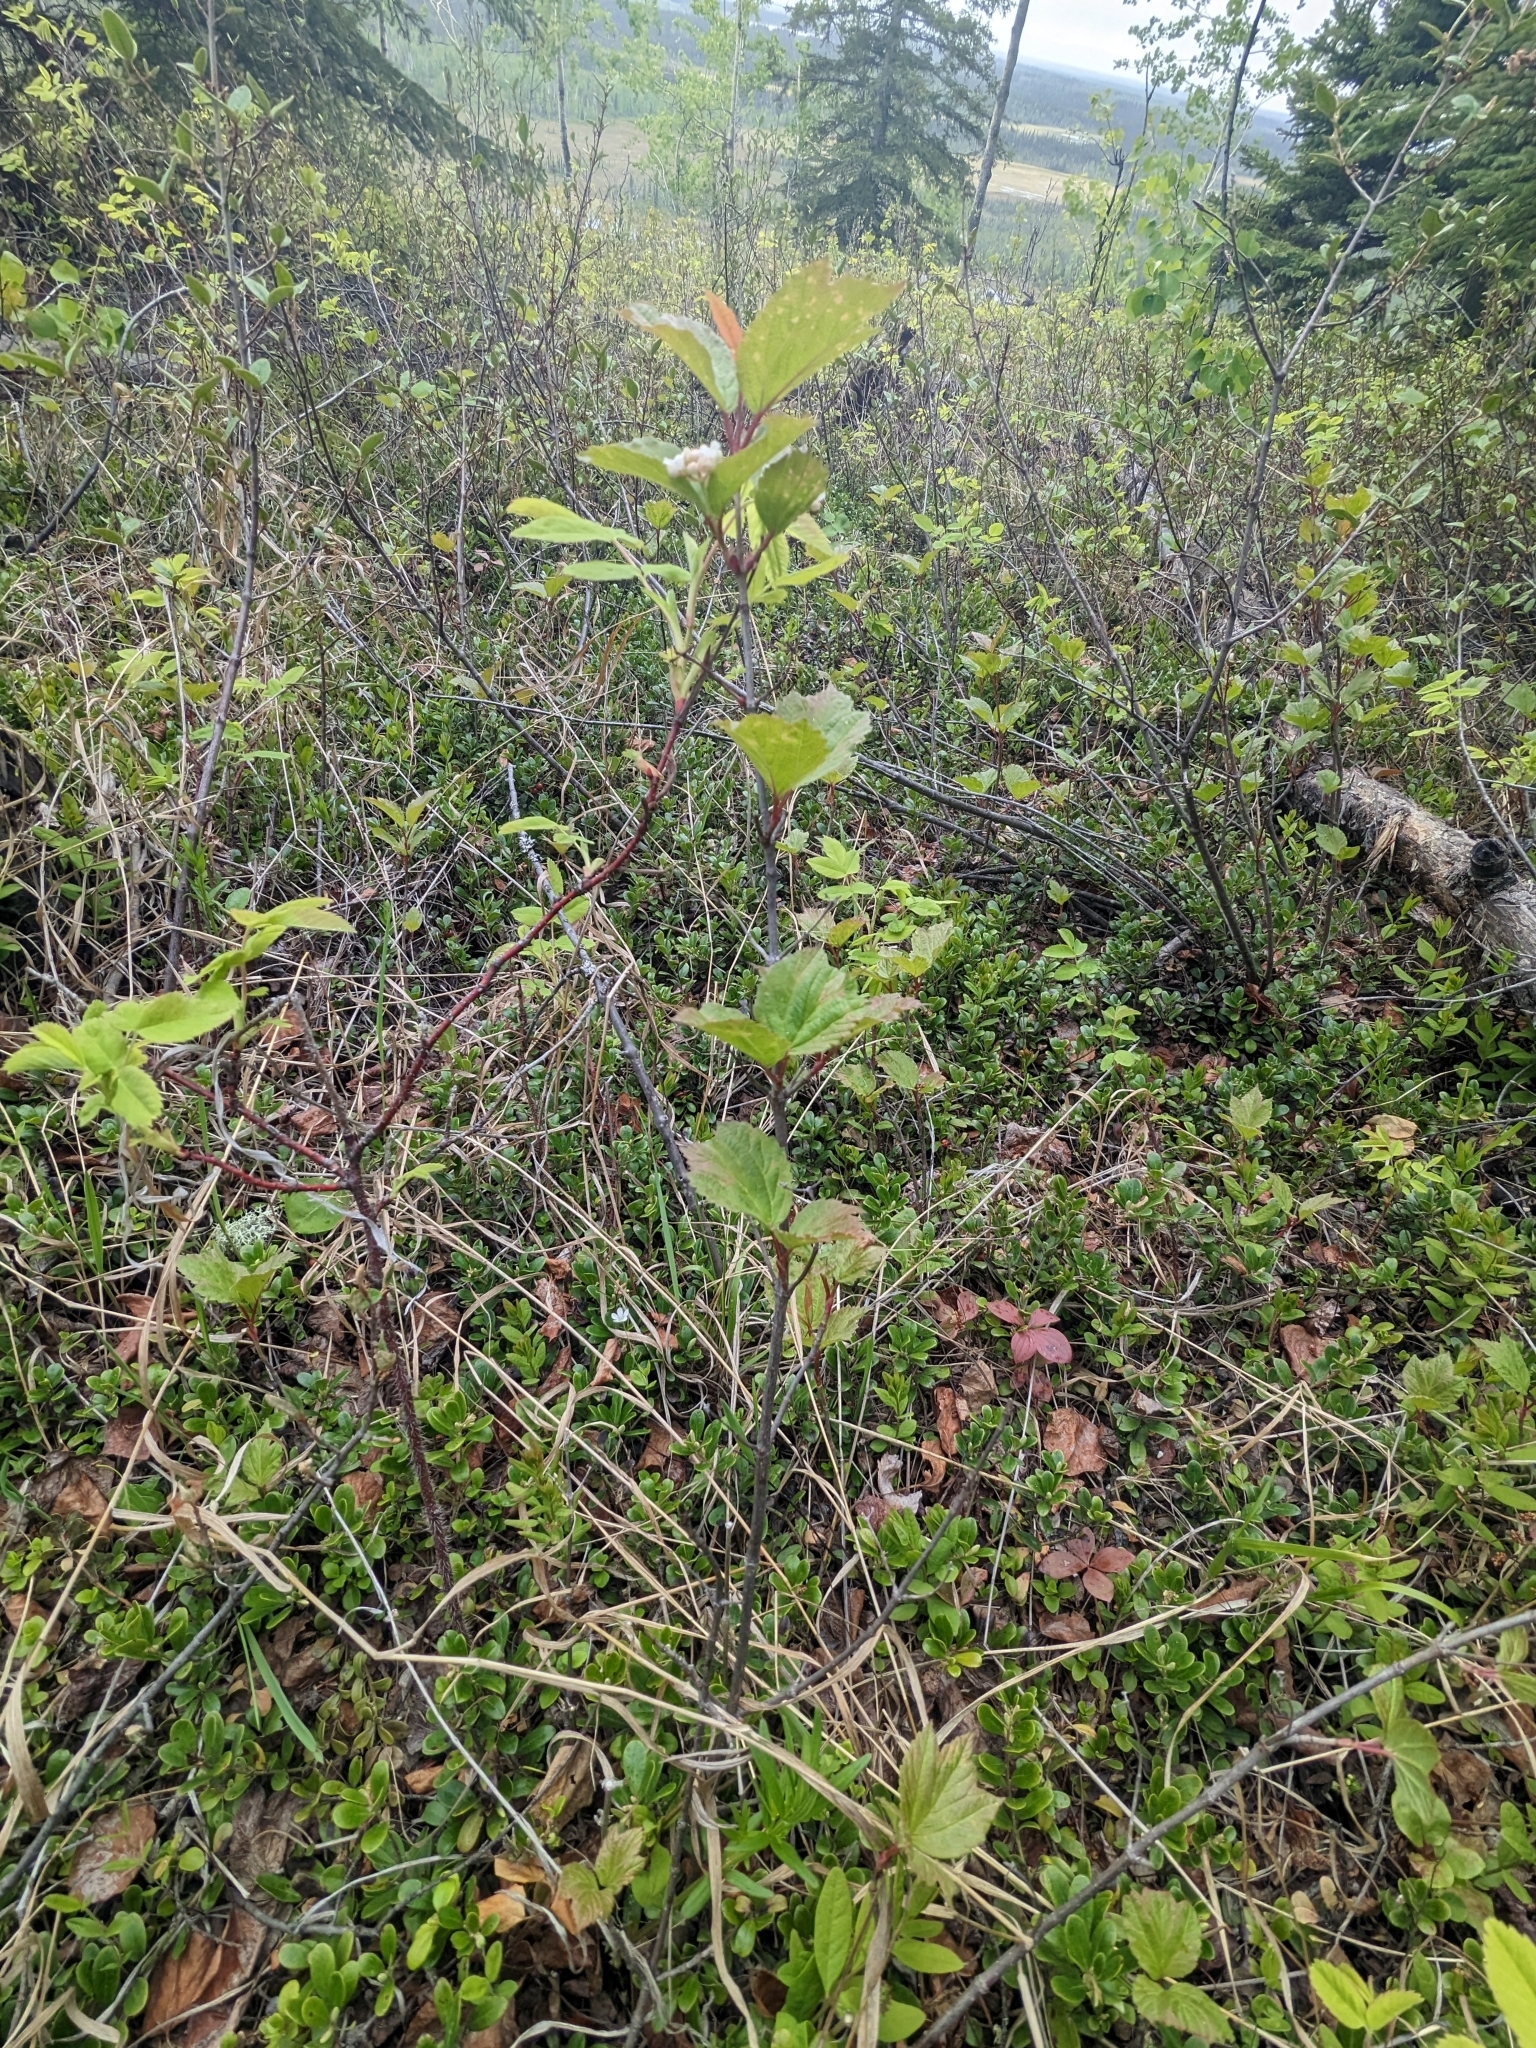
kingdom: Plantae
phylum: Tracheophyta
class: Magnoliopsida
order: Dipsacales
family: Viburnaceae
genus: Viburnum
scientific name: Viburnum edule
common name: Mooseberry
